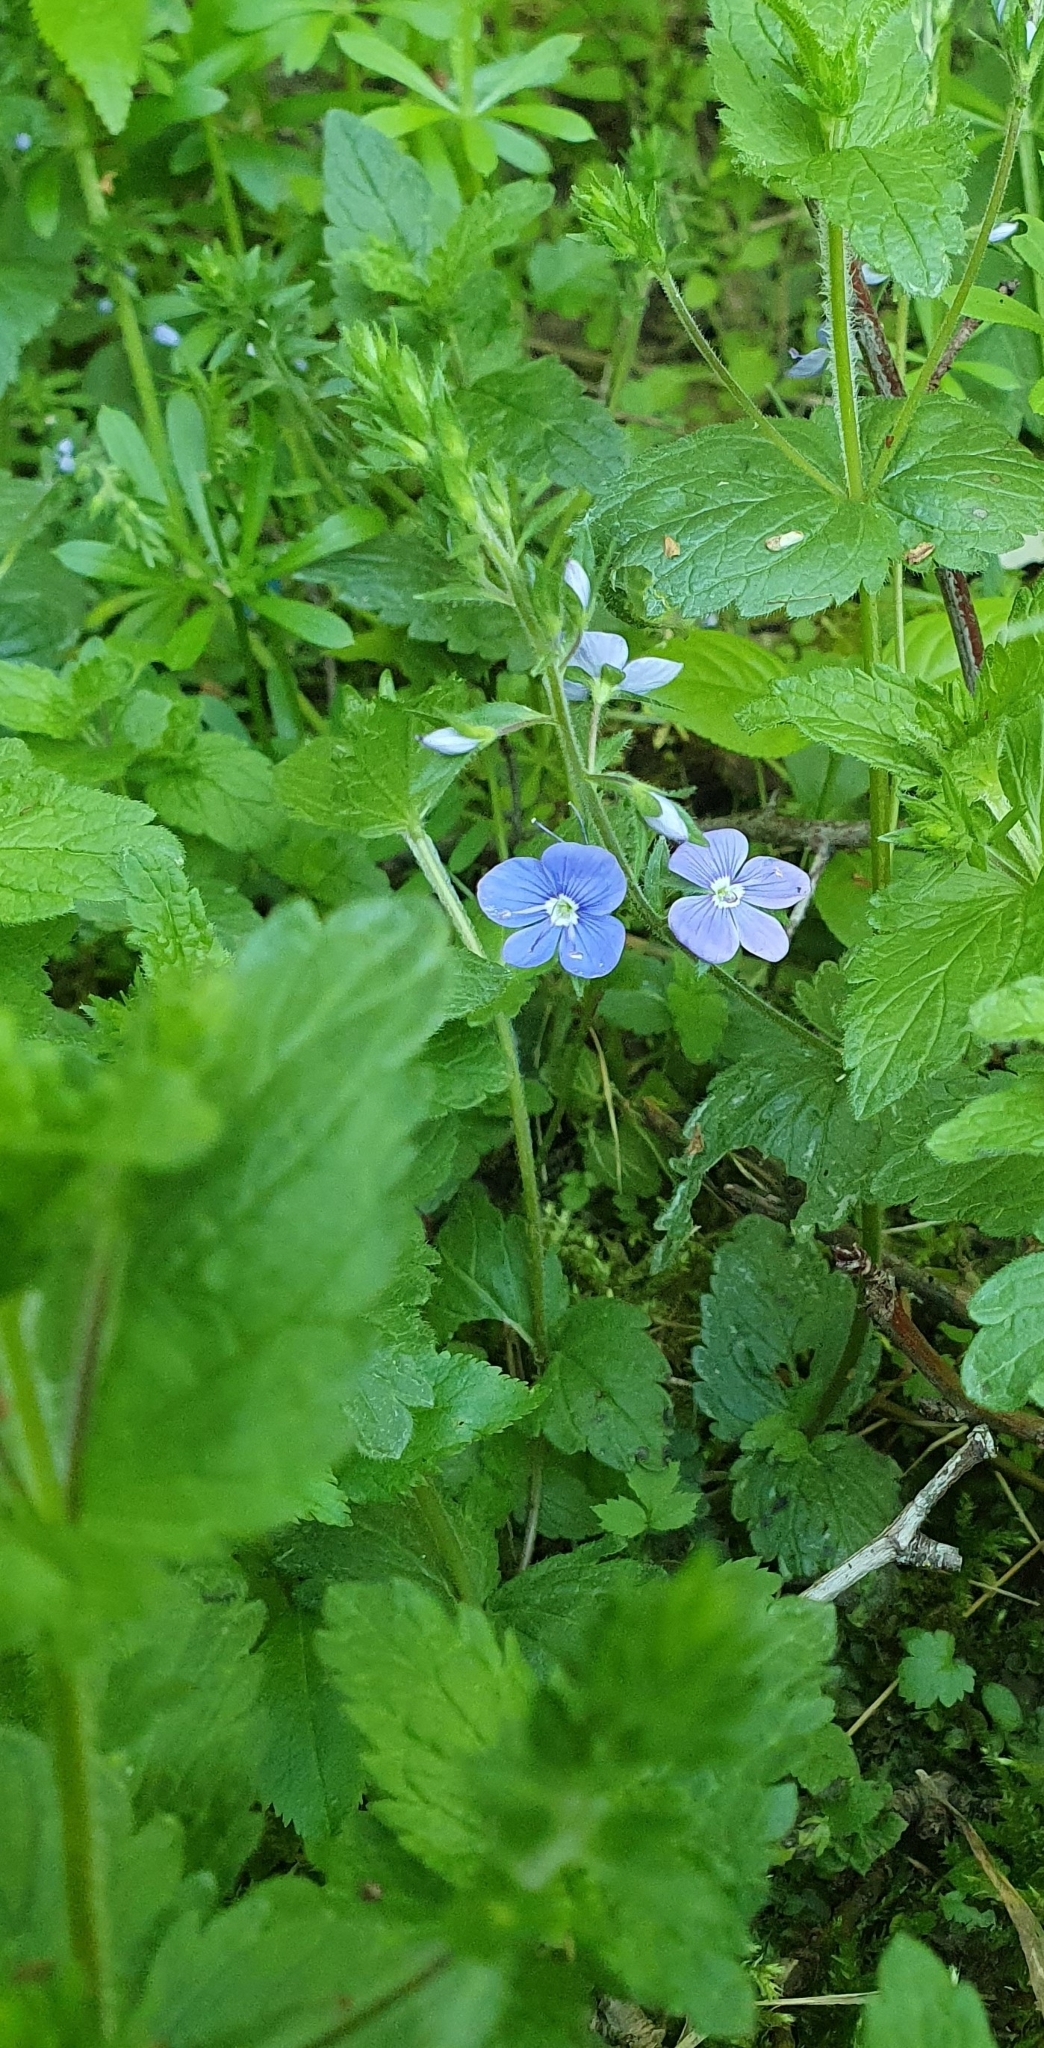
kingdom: Plantae
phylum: Tracheophyta
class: Magnoliopsida
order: Lamiales
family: Plantaginaceae
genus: Veronica
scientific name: Veronica chamaedrys
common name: Germander speedwell
